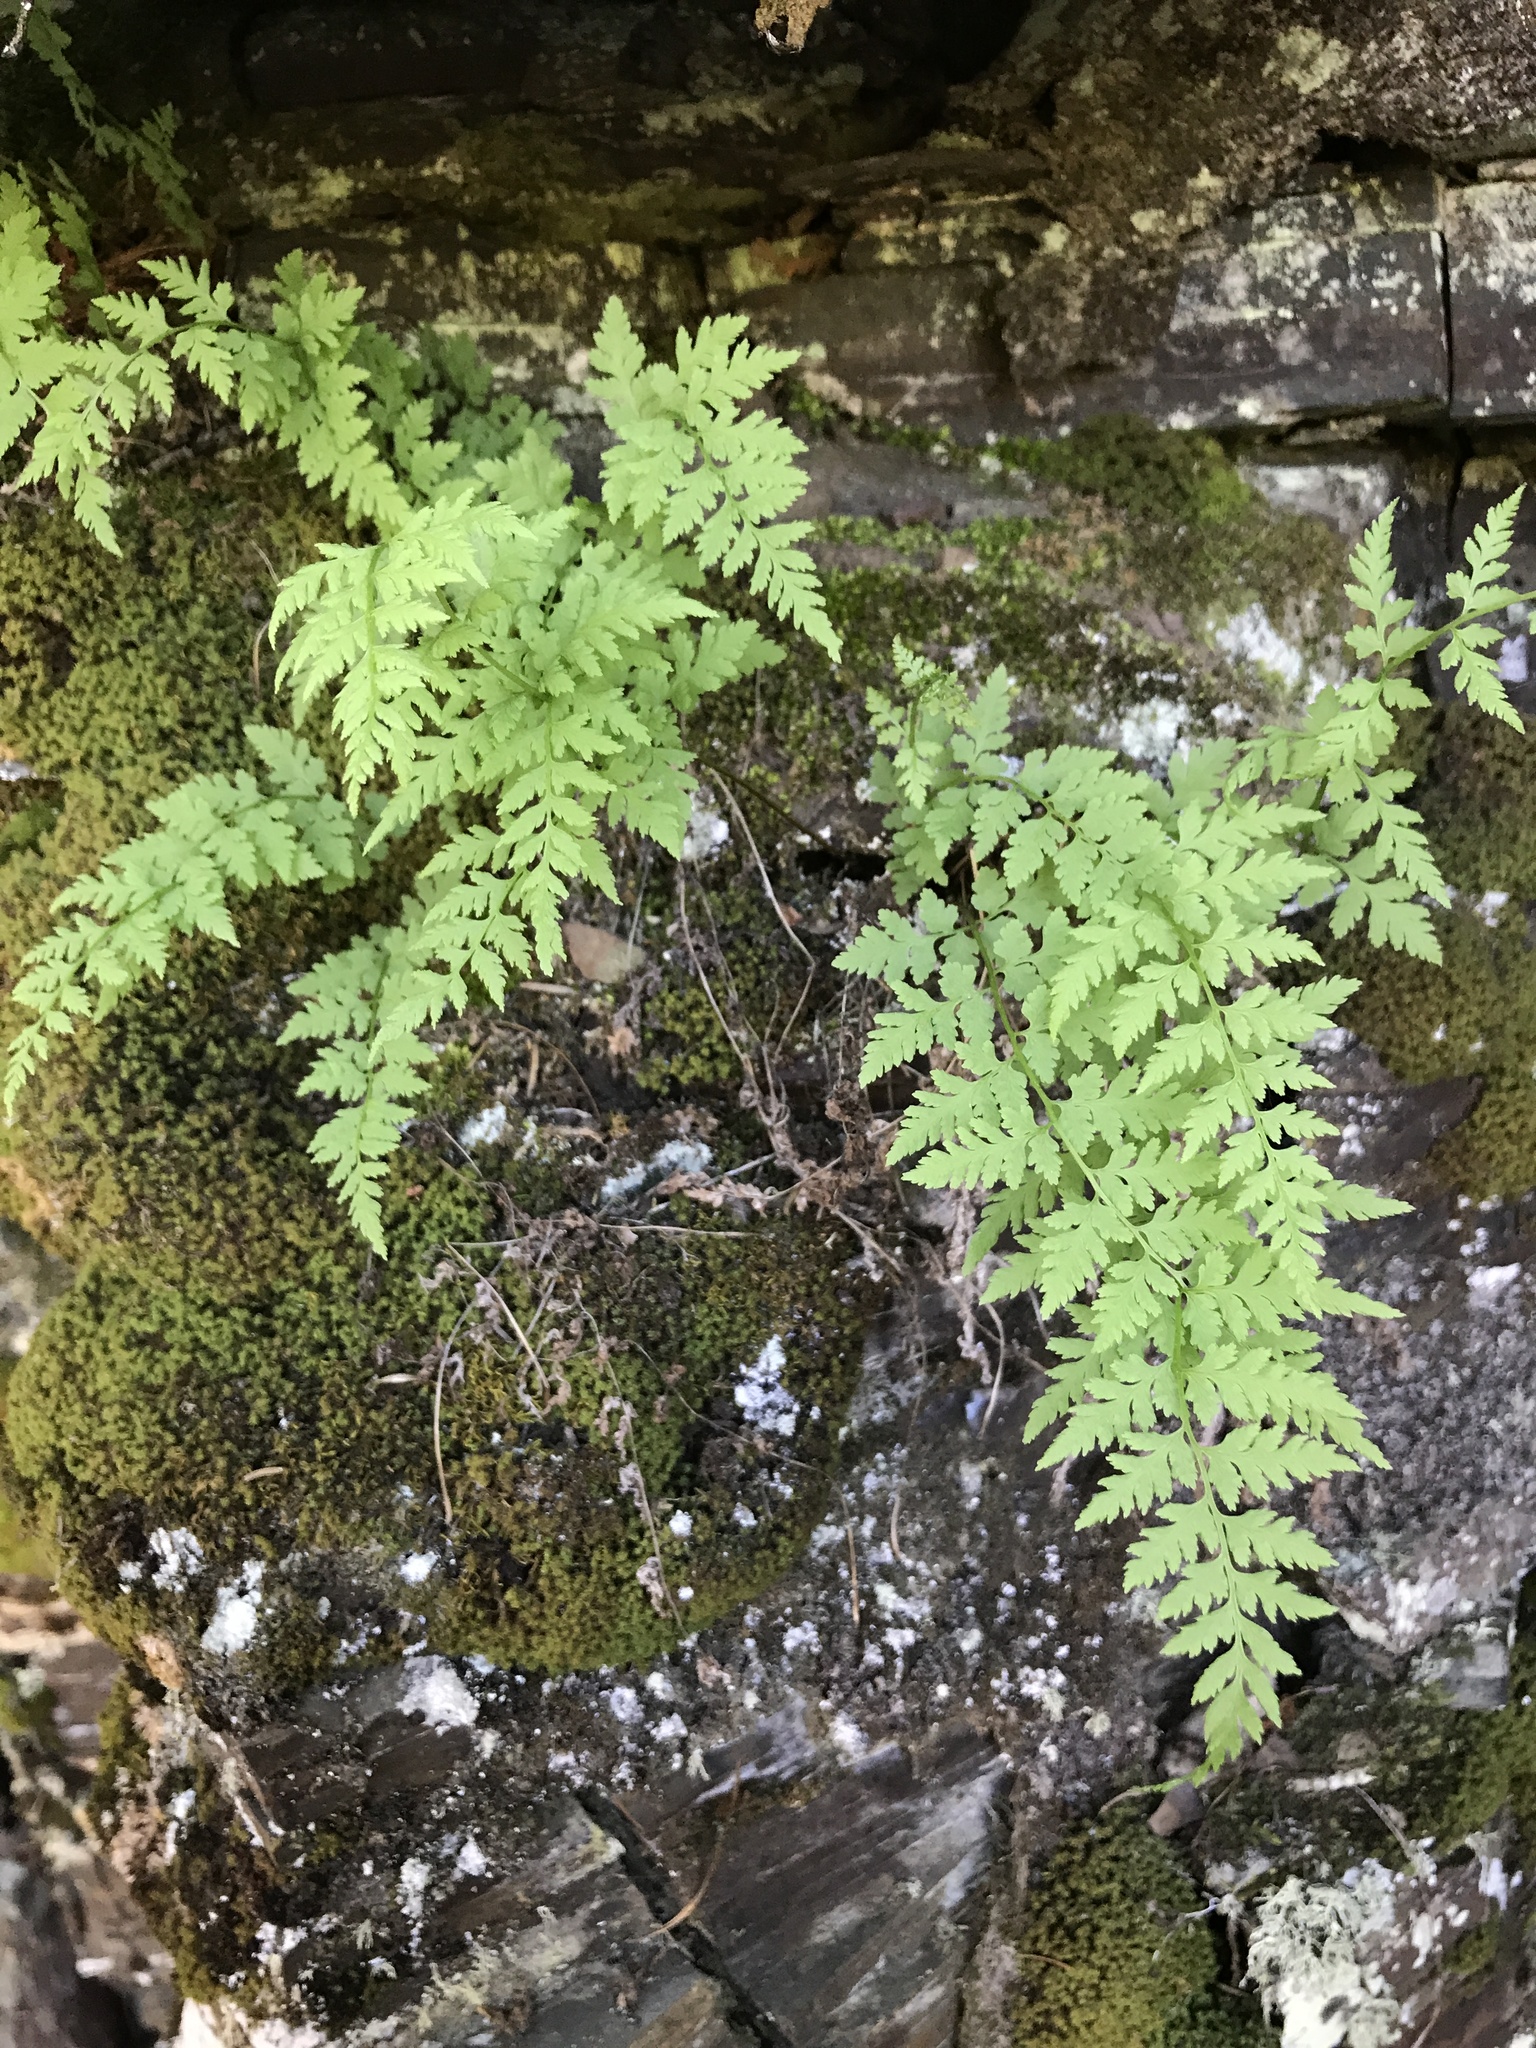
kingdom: Plantae
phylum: Tracheophyta
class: Polypodiopsida
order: Polypodiales
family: Cystopteridaceae
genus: Cystopteris
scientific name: Cystopteris fragilis
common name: Brittle bladder fern
